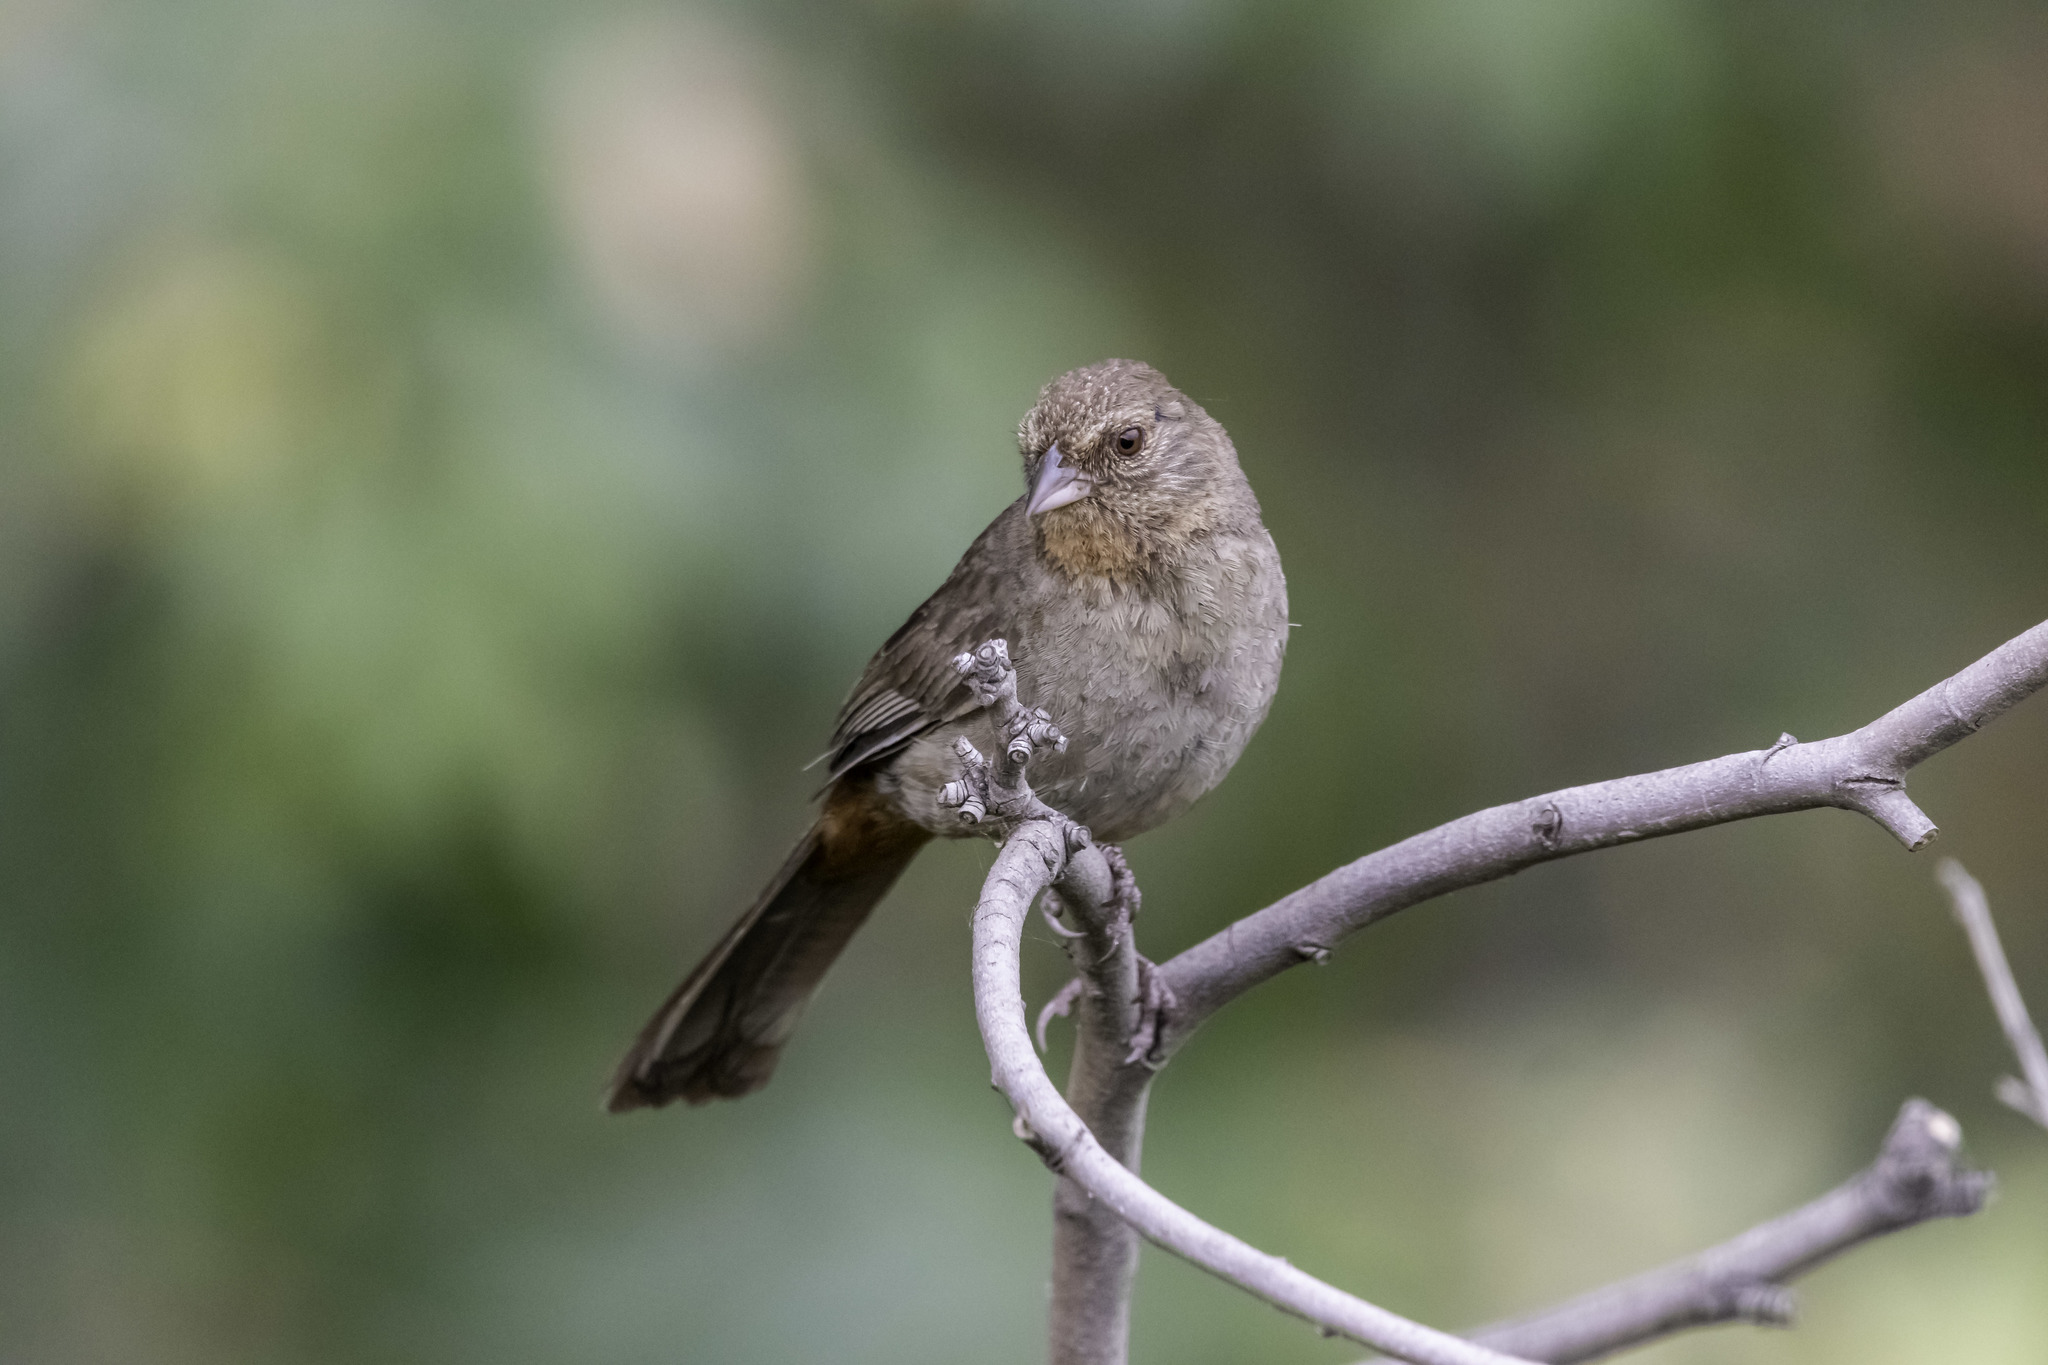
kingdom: Animalia
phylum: Chordata
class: Aves
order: Passeriformes
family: Passerellidae
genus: Melozone
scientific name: Melozone crissalis
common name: California towhee
